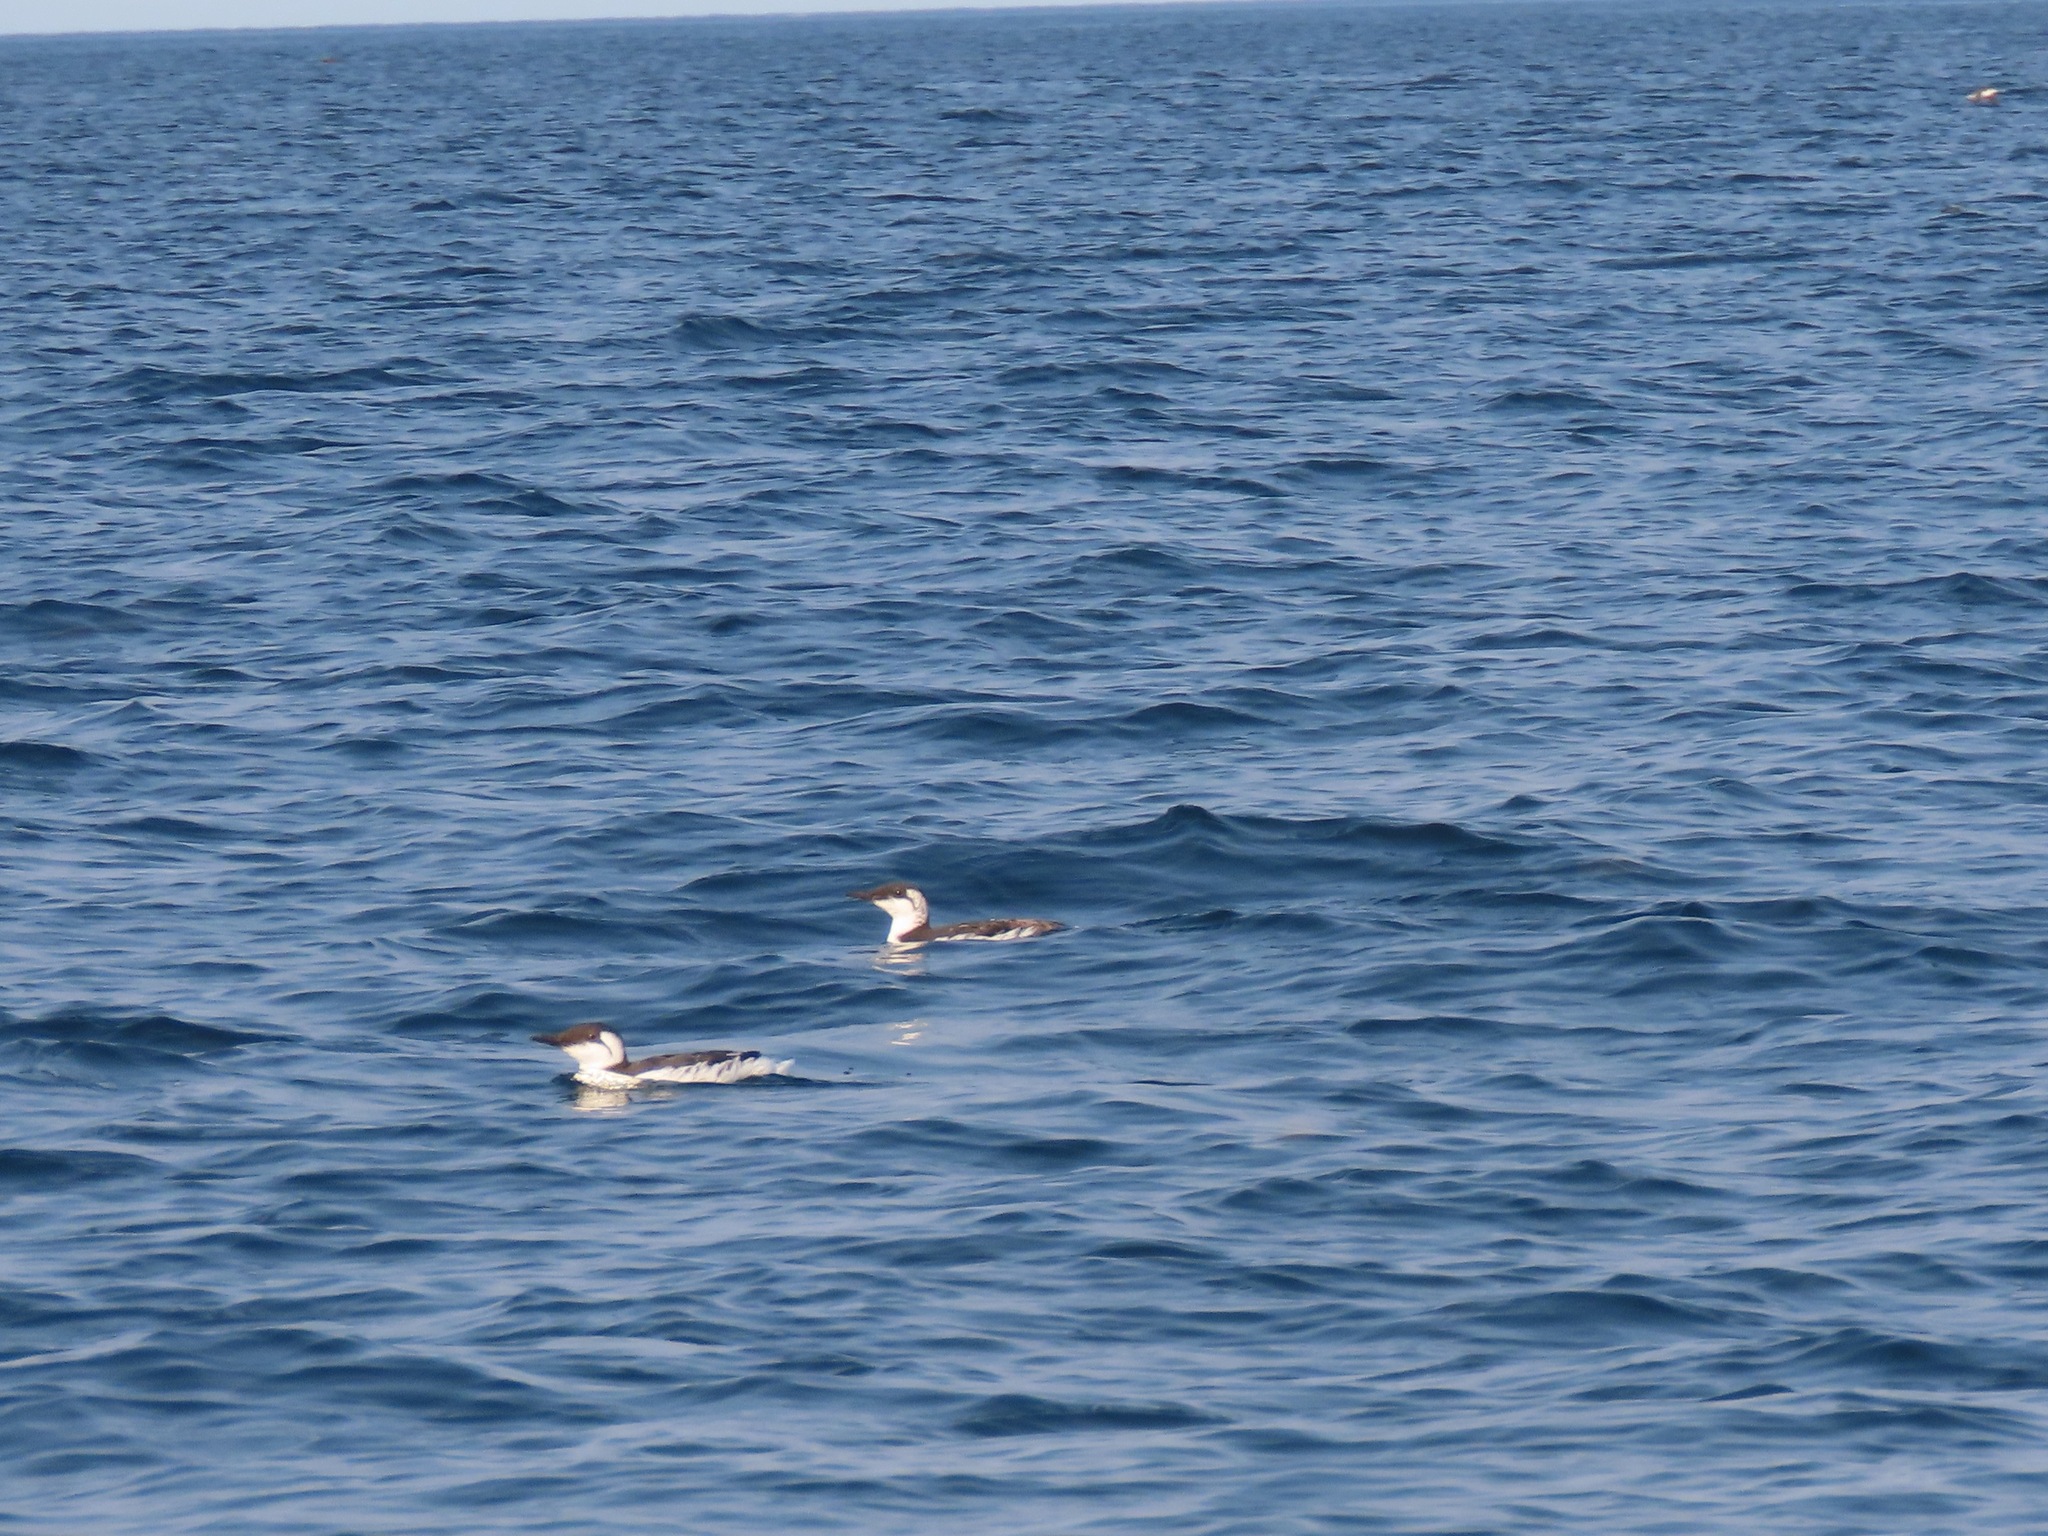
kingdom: Animalia
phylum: Chordata
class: Aves
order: Charadriiformes
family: Alcidae
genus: Uria
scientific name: Uria aalge
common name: Common murre
